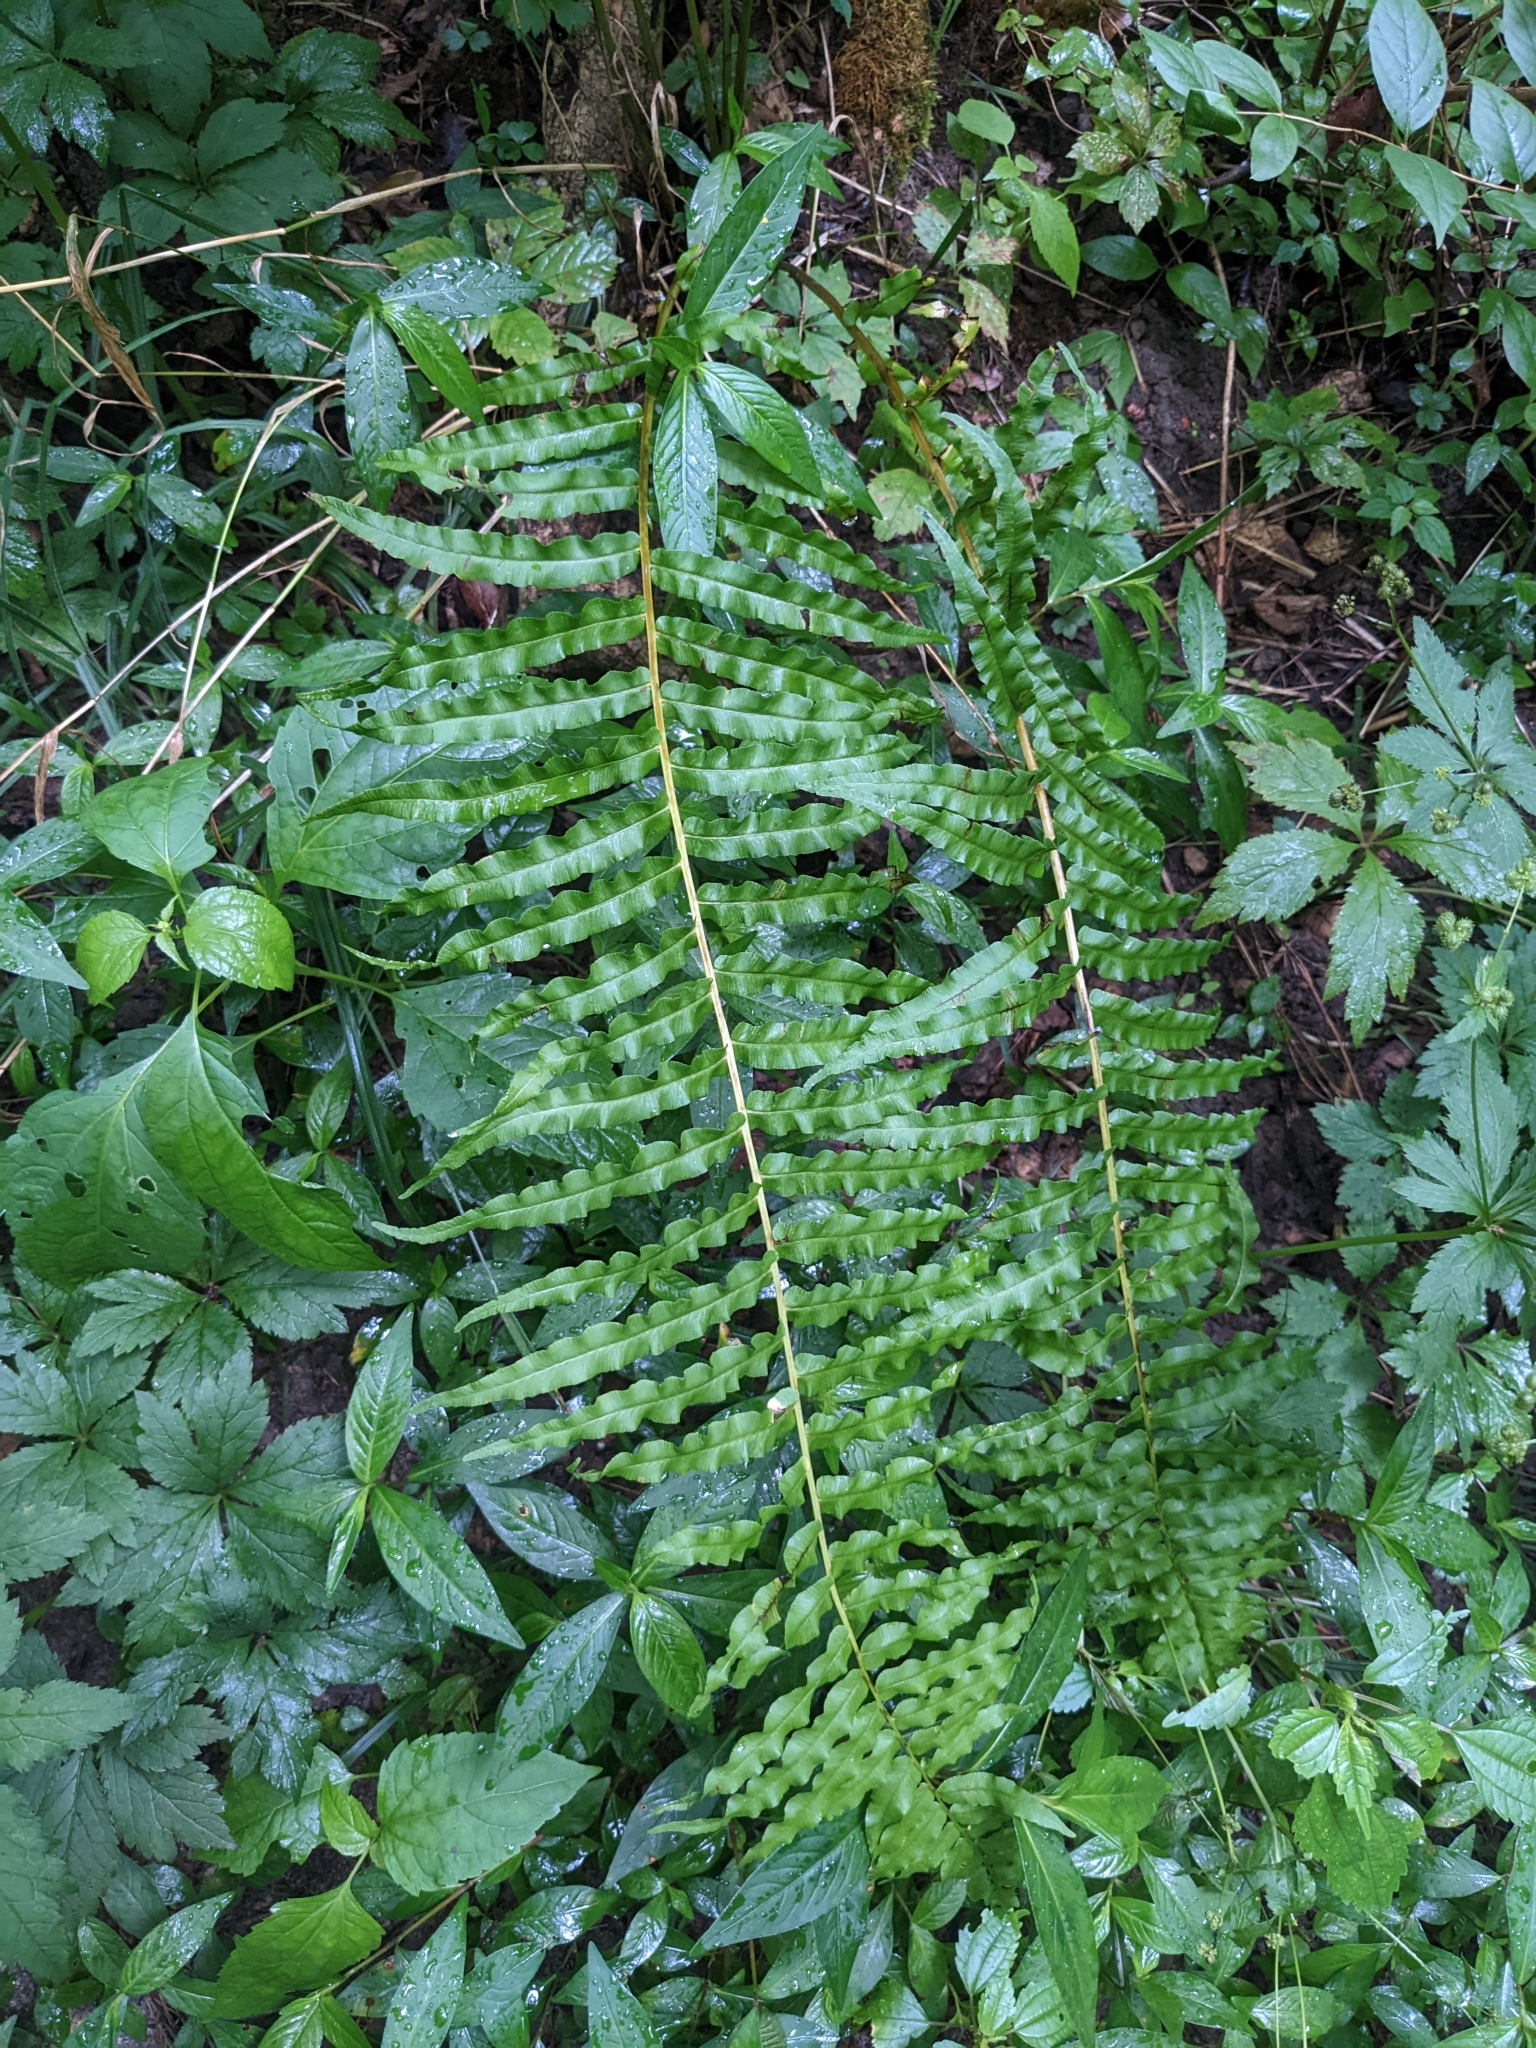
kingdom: Plantae
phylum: Tracheophyta
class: Polypodiopsida
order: Polypodiales
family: Diplaziopsidaceae
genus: Homalosorus
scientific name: Homalosorus pycnocarpos
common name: Glade fern
